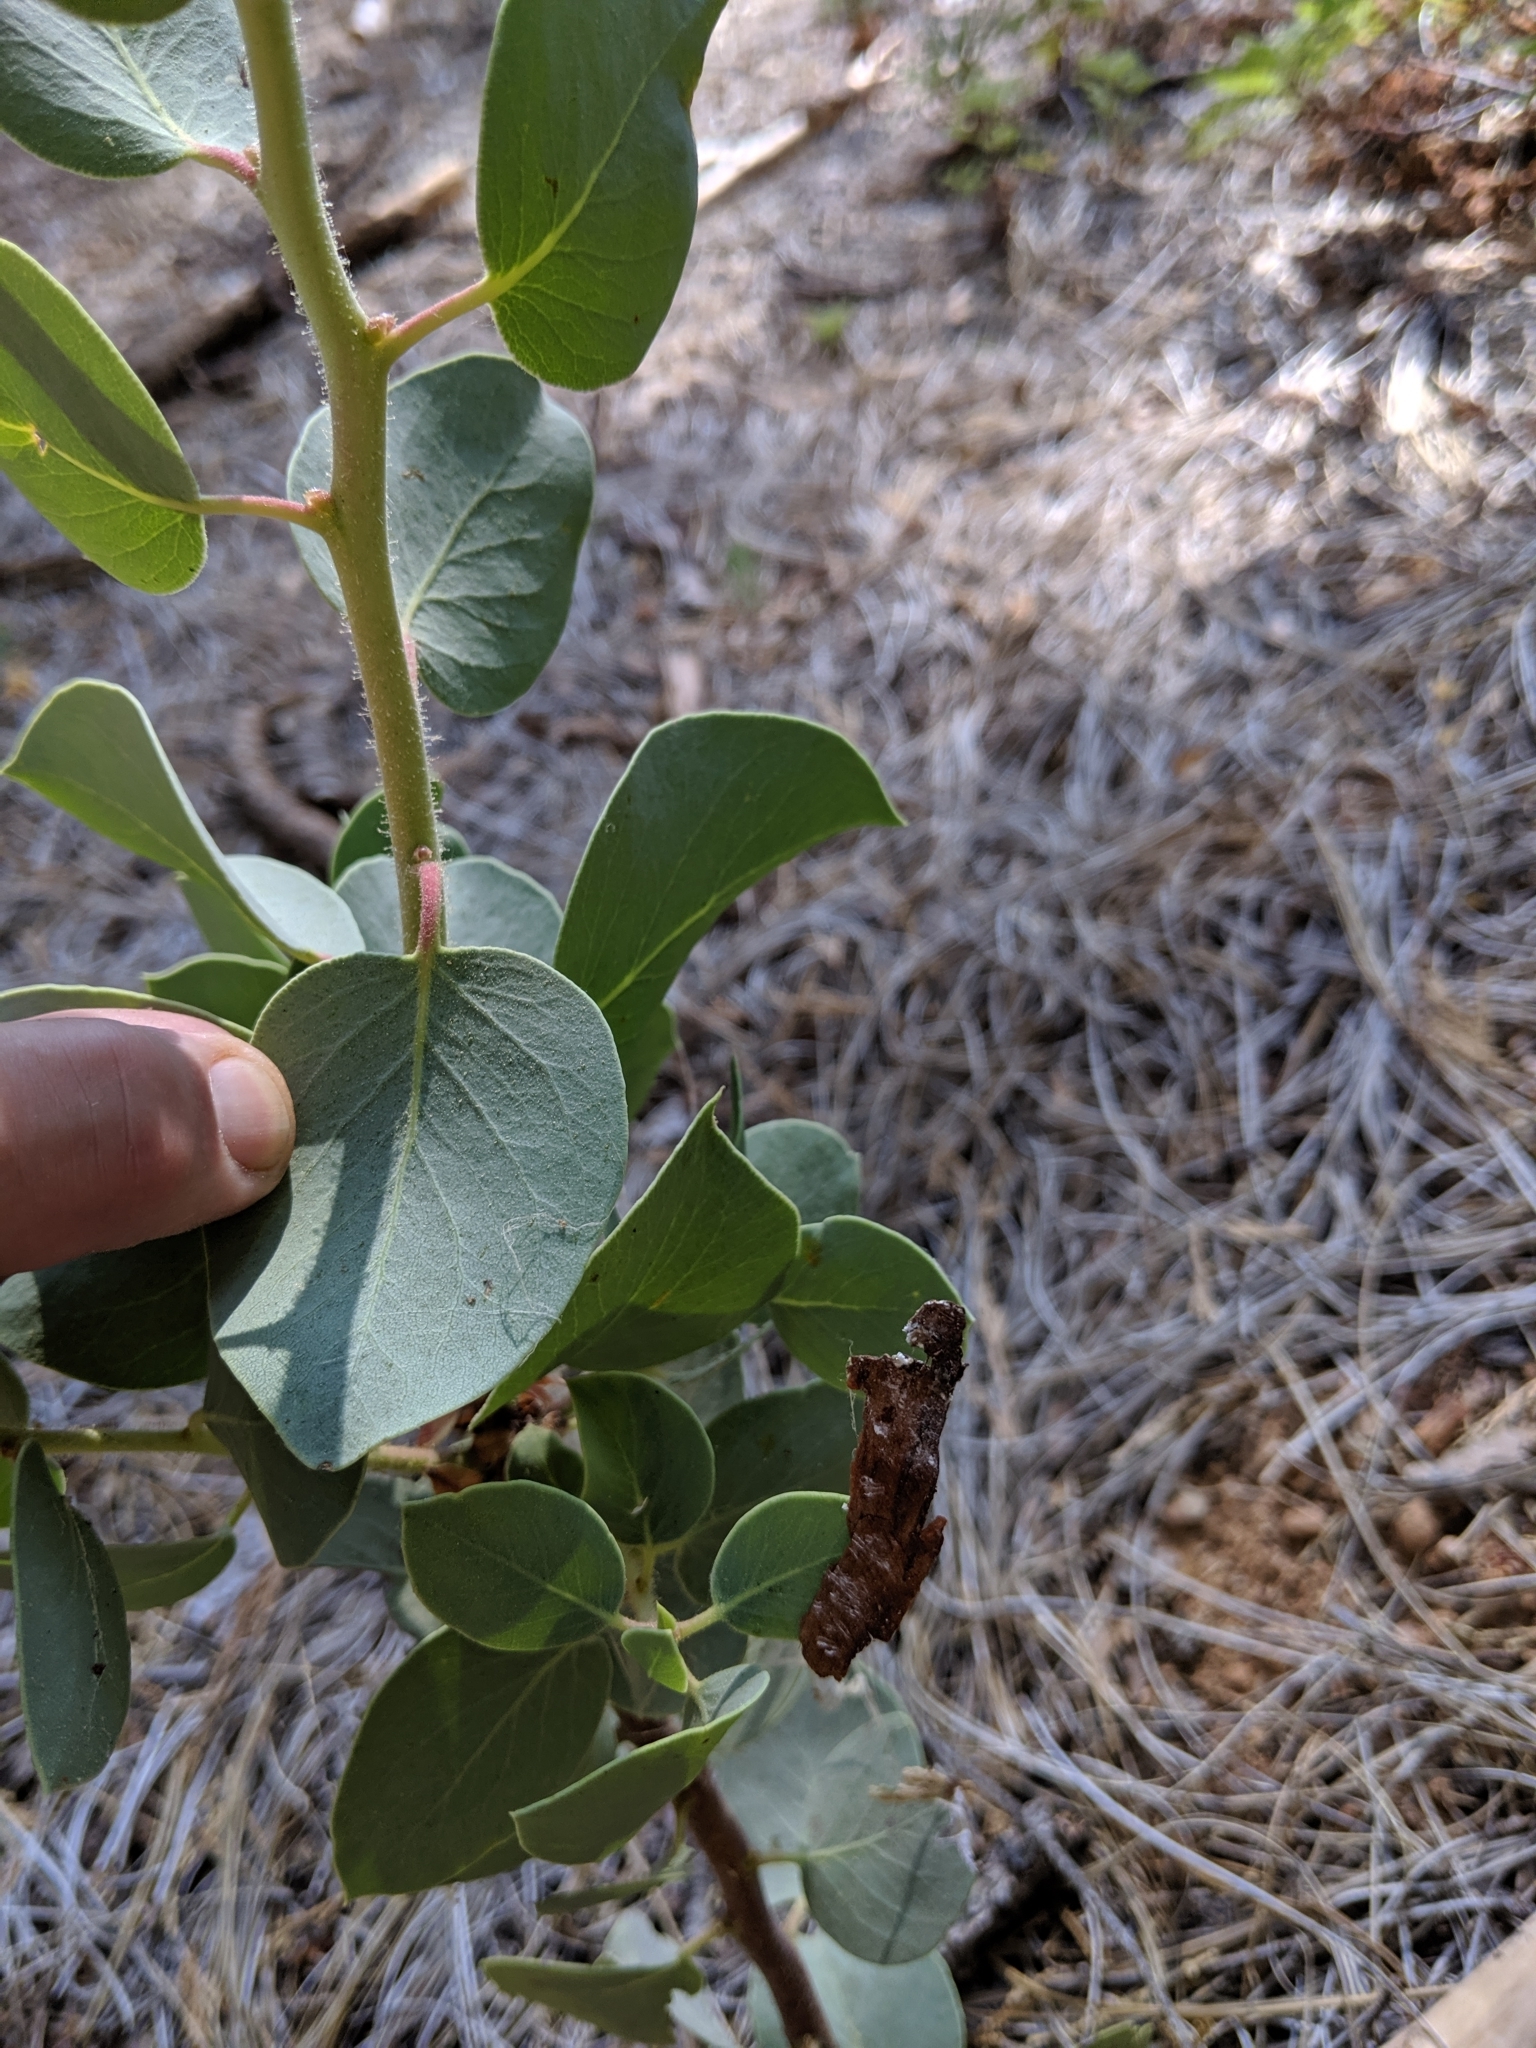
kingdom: Plantae
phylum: Tracheophyta
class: Magnoliopsida
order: Ericales
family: Ericaceae
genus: Arctostaphylos
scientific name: Arctostaphylos viscida
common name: White-leaf manzanita
